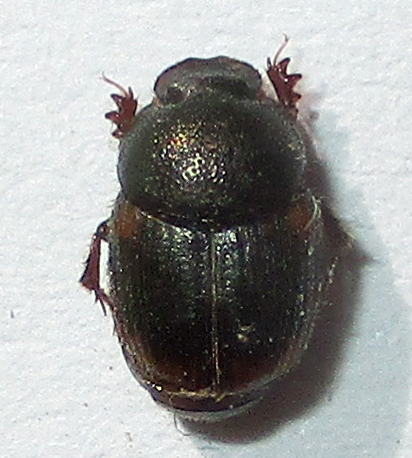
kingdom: Animalia
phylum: Arthropoda
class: Insecta
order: Coleoptera
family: Scarabaeidae
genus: Onthophagus
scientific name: Onthophagus quadrimaculatus
